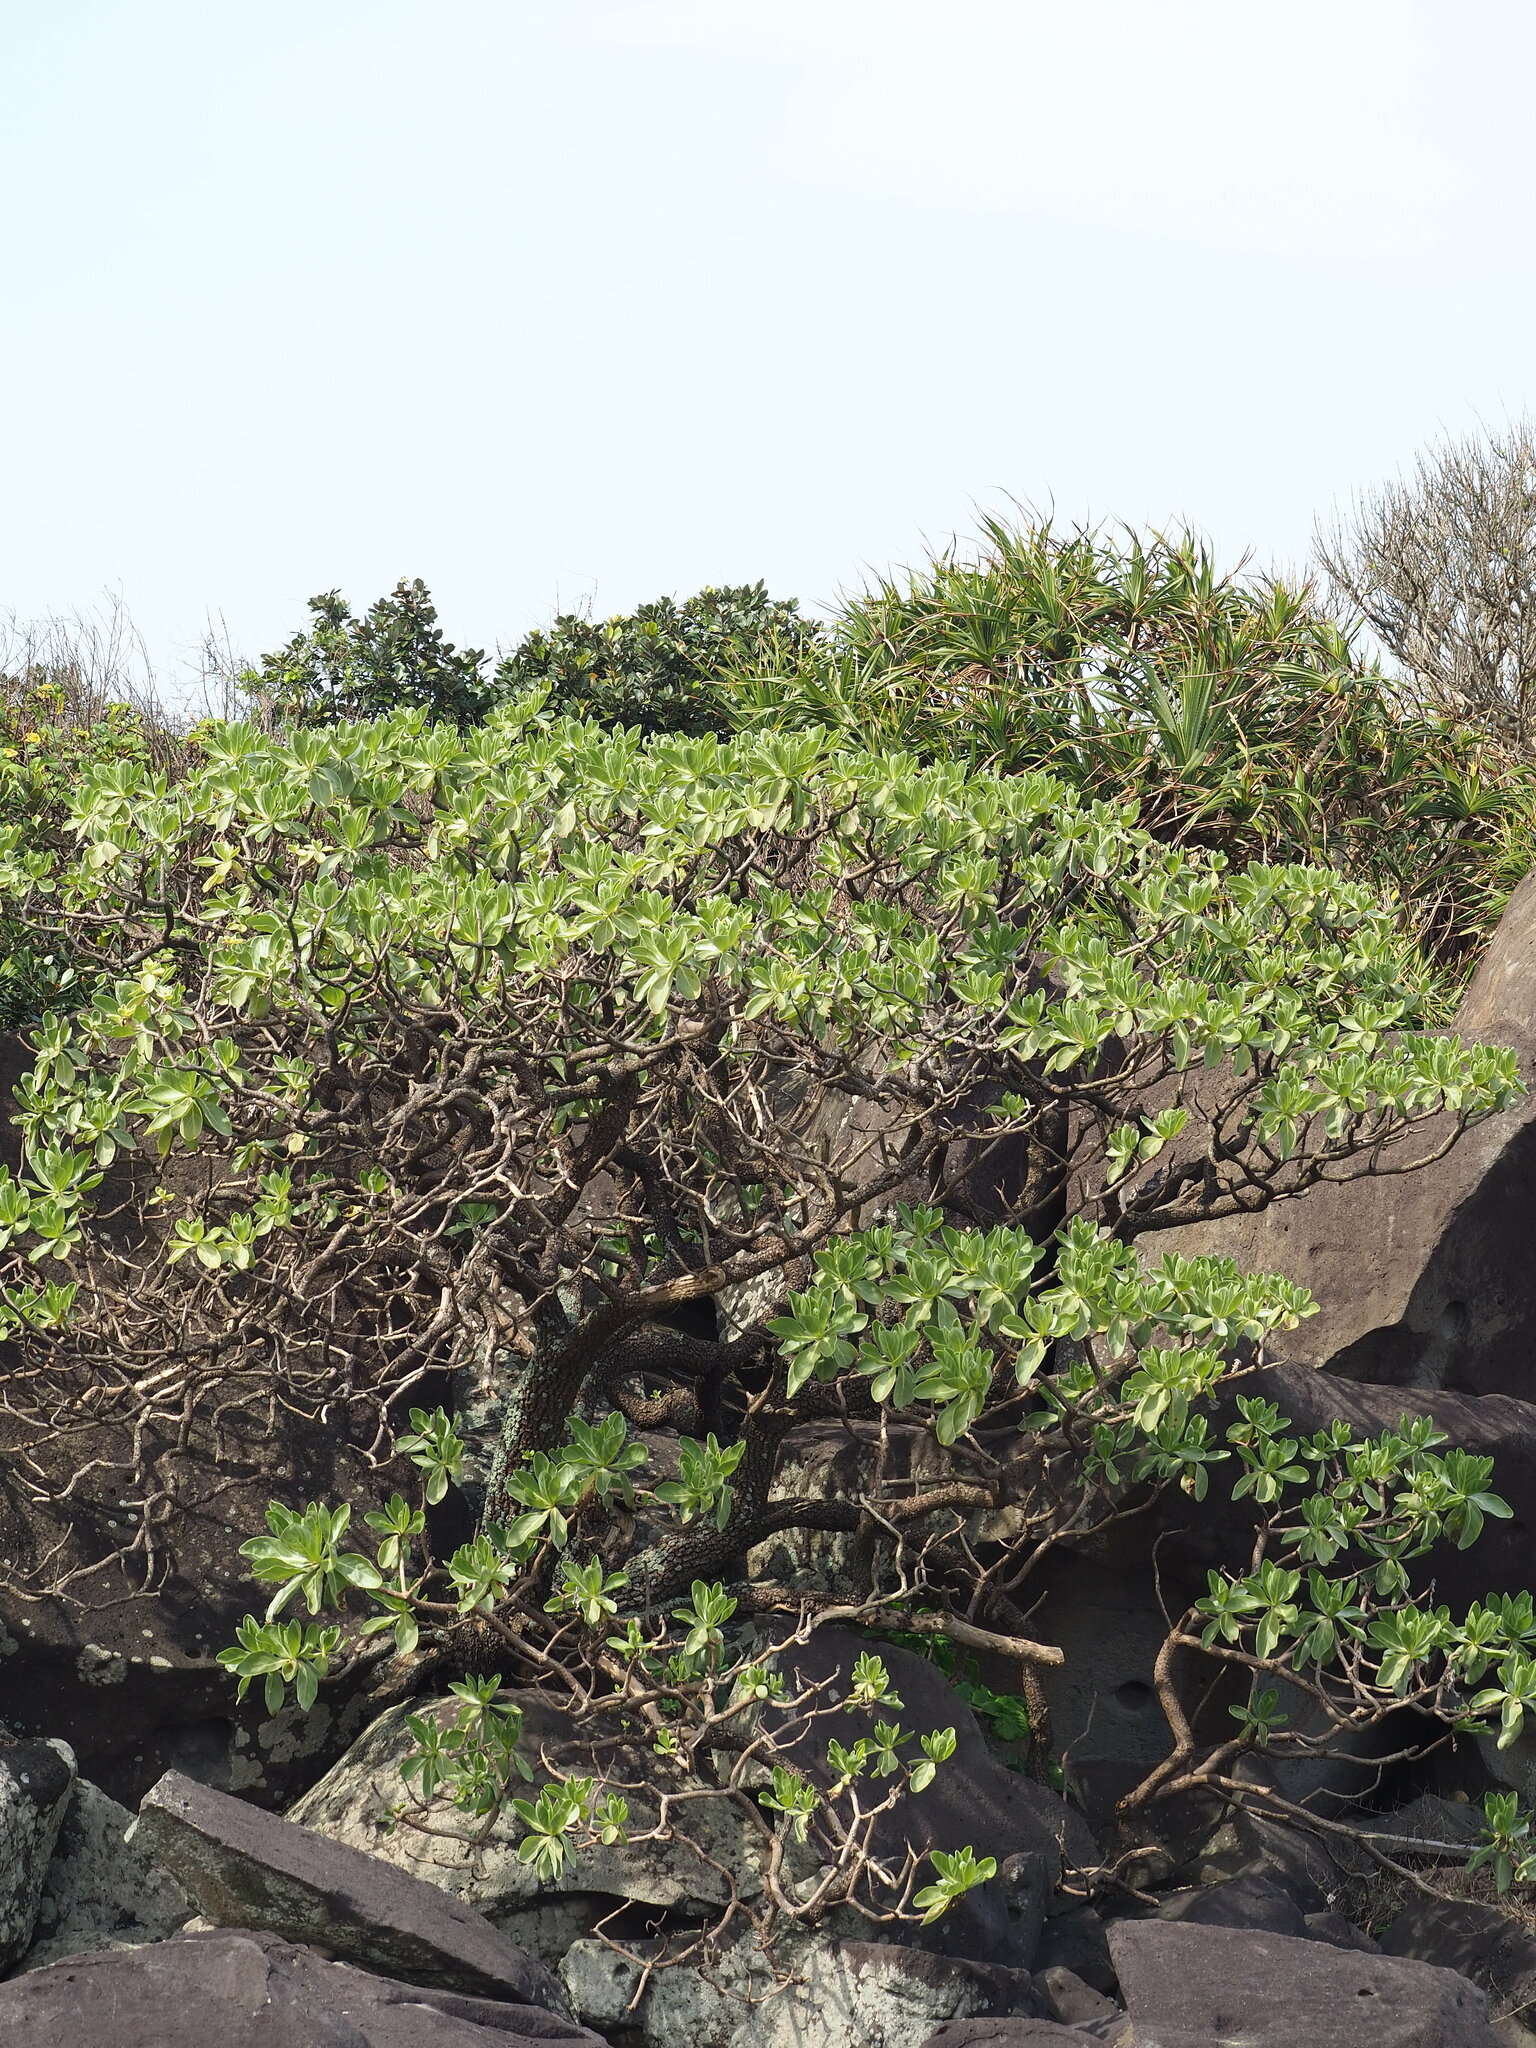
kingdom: Plantae
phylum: Tracheophyta
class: Magnoliopsida
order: Boraginales
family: Heliotropiaceae
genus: Heliotropium
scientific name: Heliotropium velutinum
